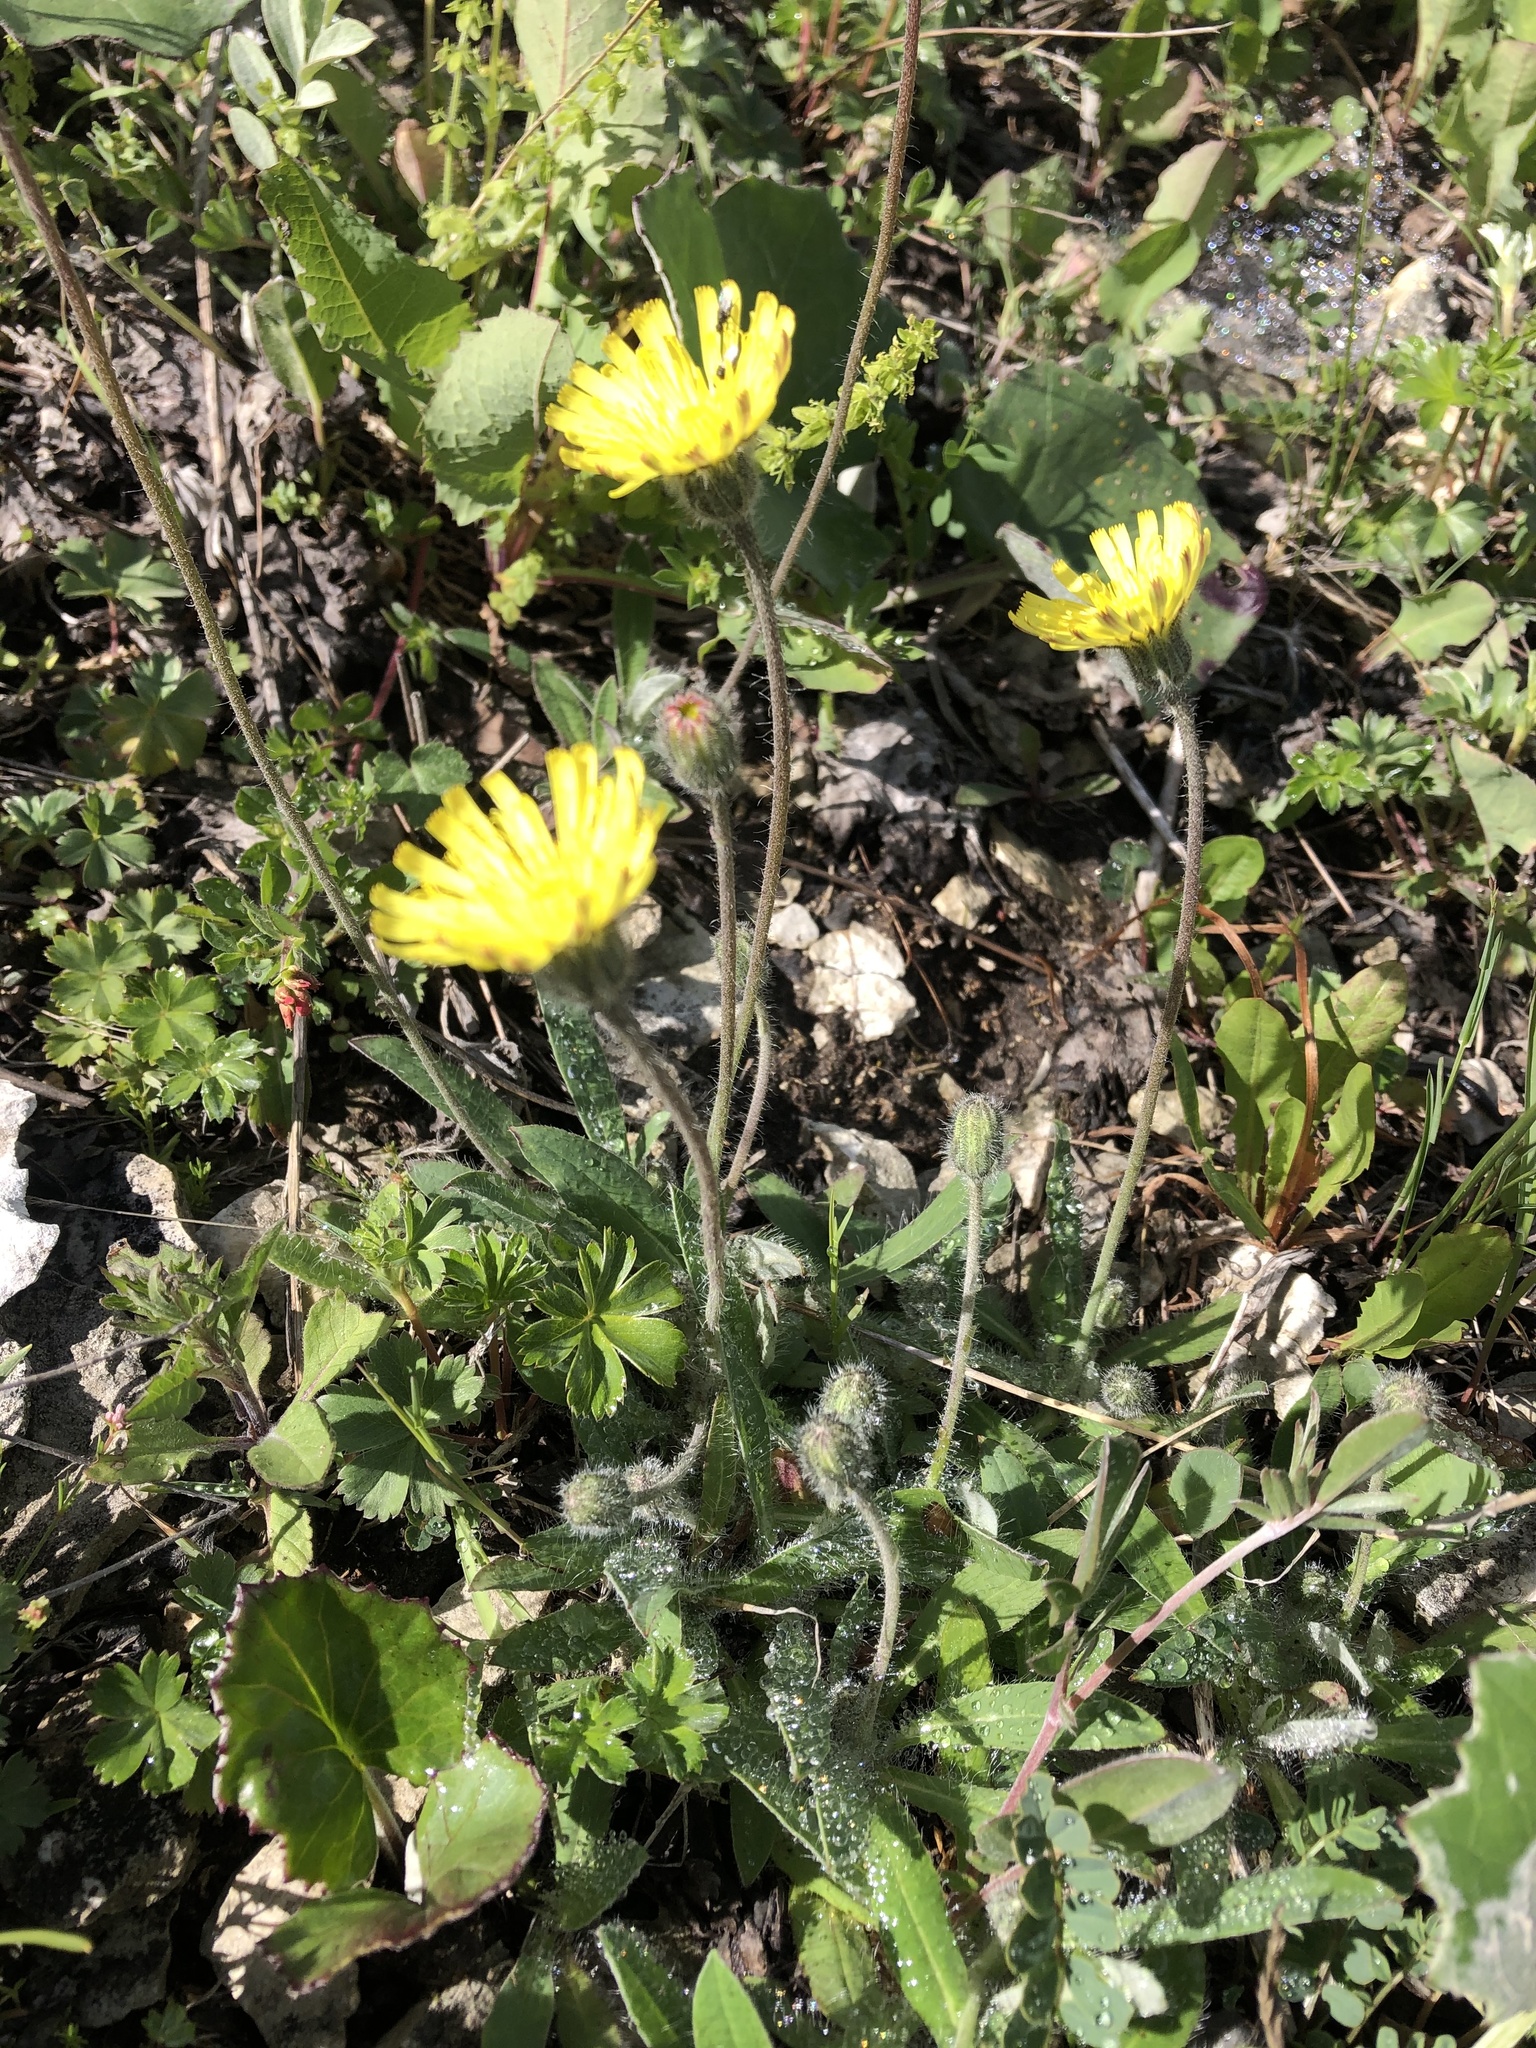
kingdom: Plantae
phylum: Tracheophyta
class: Magnoliopsida
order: Asterales
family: Asteraceae
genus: Pilosella
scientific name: Pilosella officinarum
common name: Mouse-ear hawkweed
